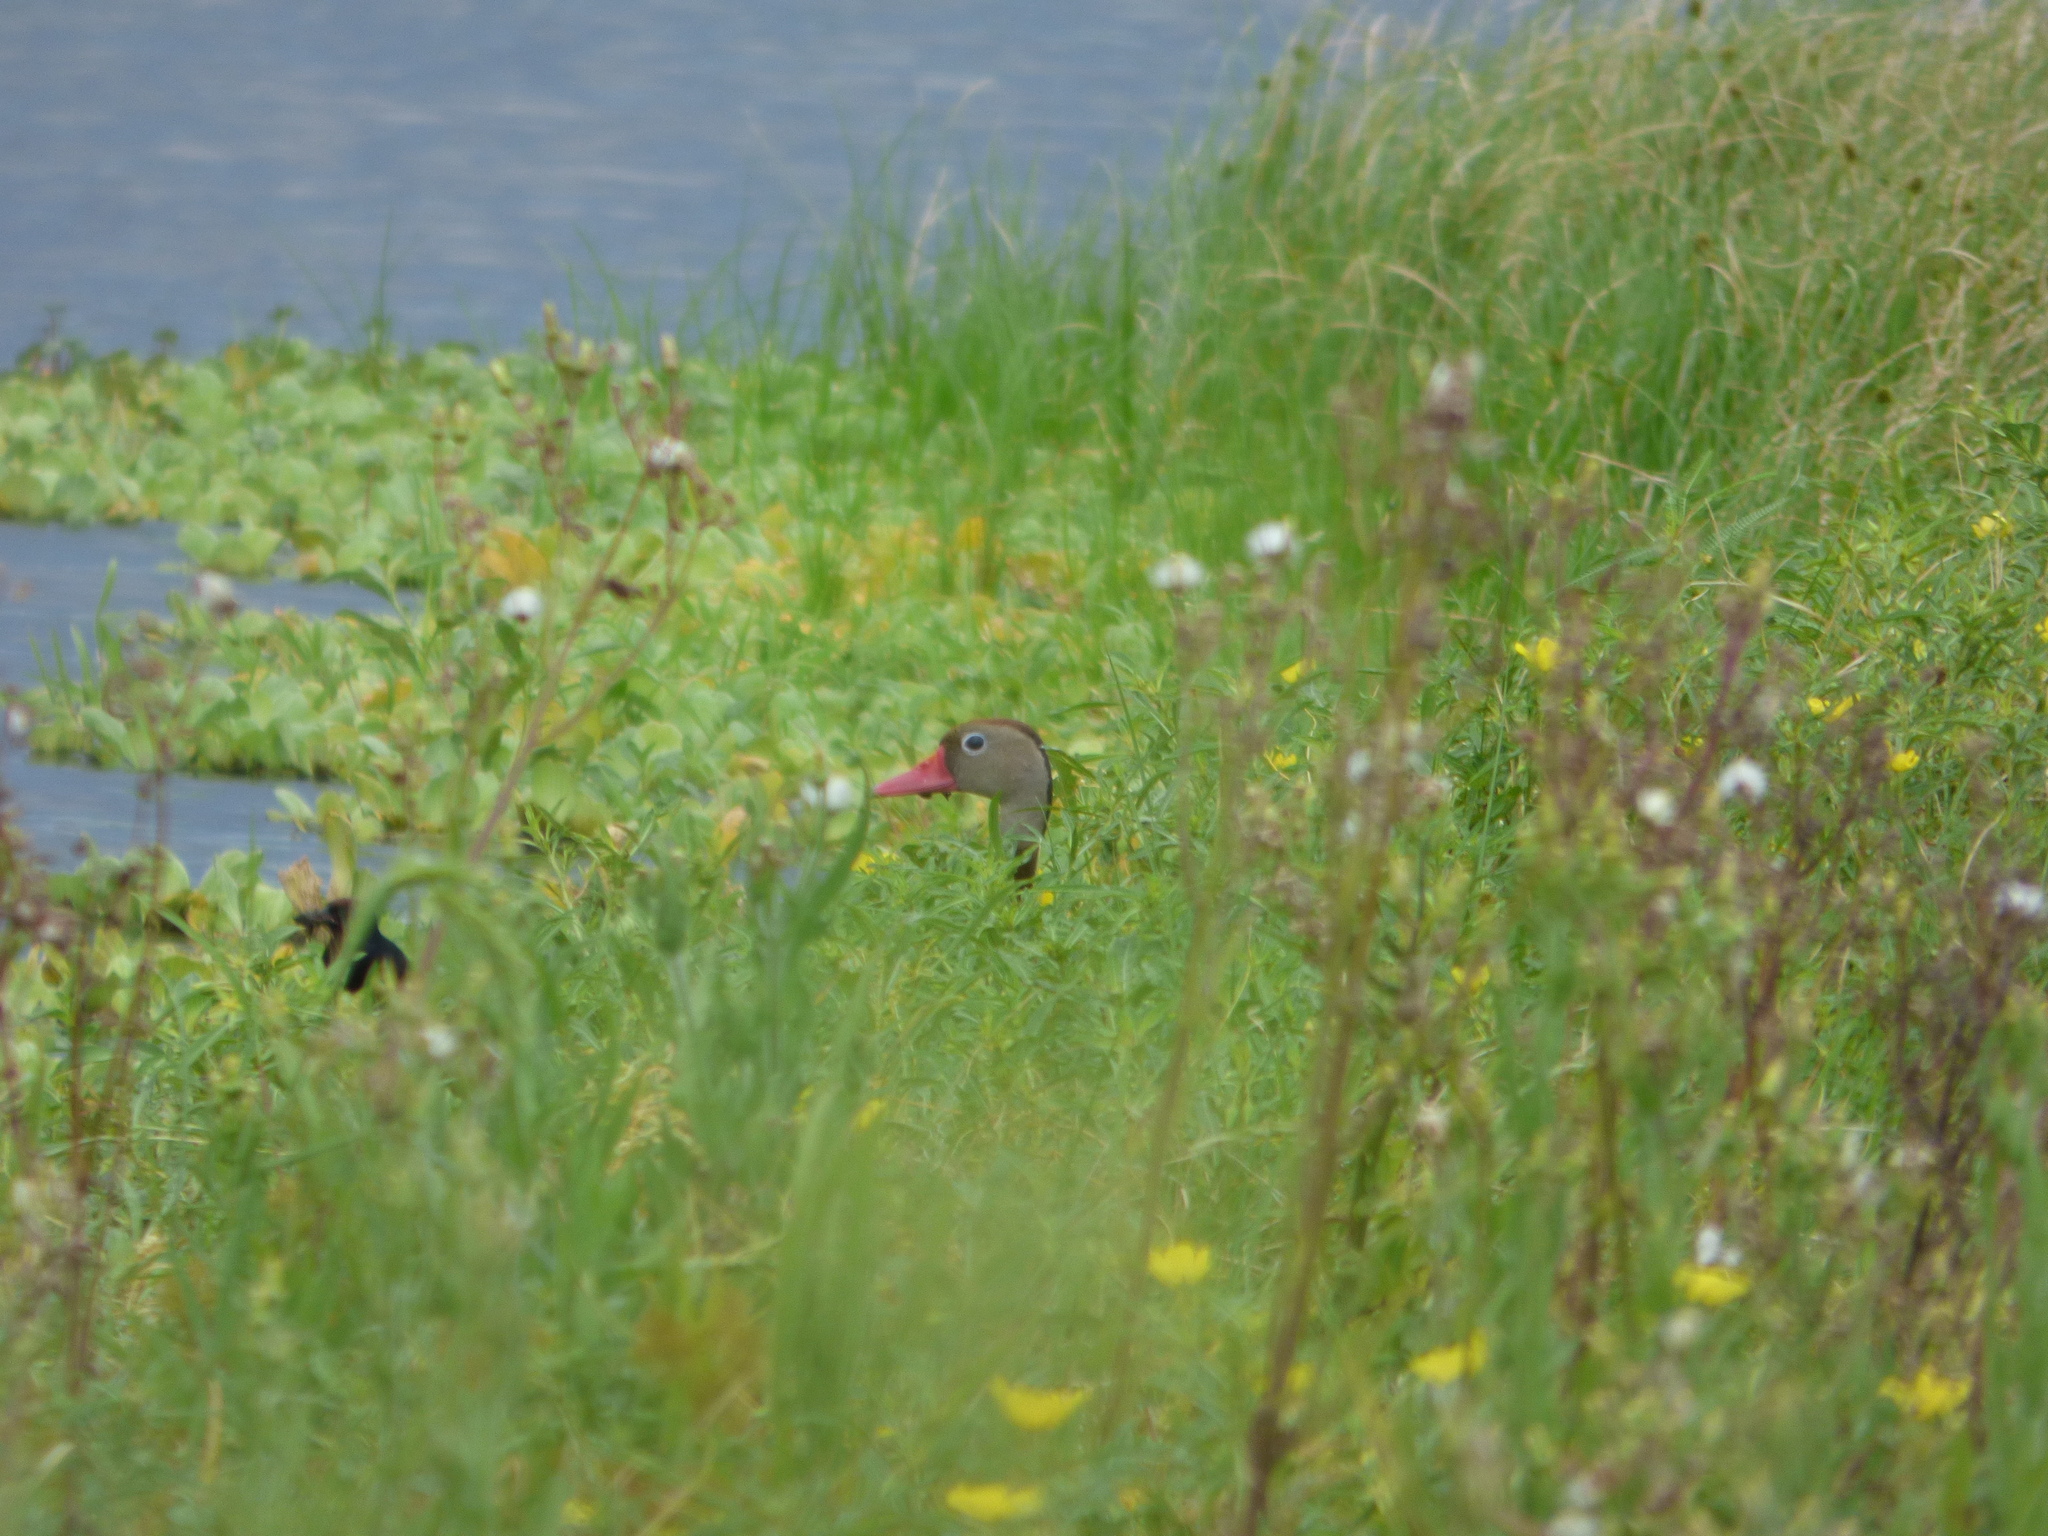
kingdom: Animalia
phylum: Chordata
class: Aves
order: Anseriformes
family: Anatidae
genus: Dendrocygna
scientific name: Dendrocygna autumnalis
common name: Black-bellied whistling duck
